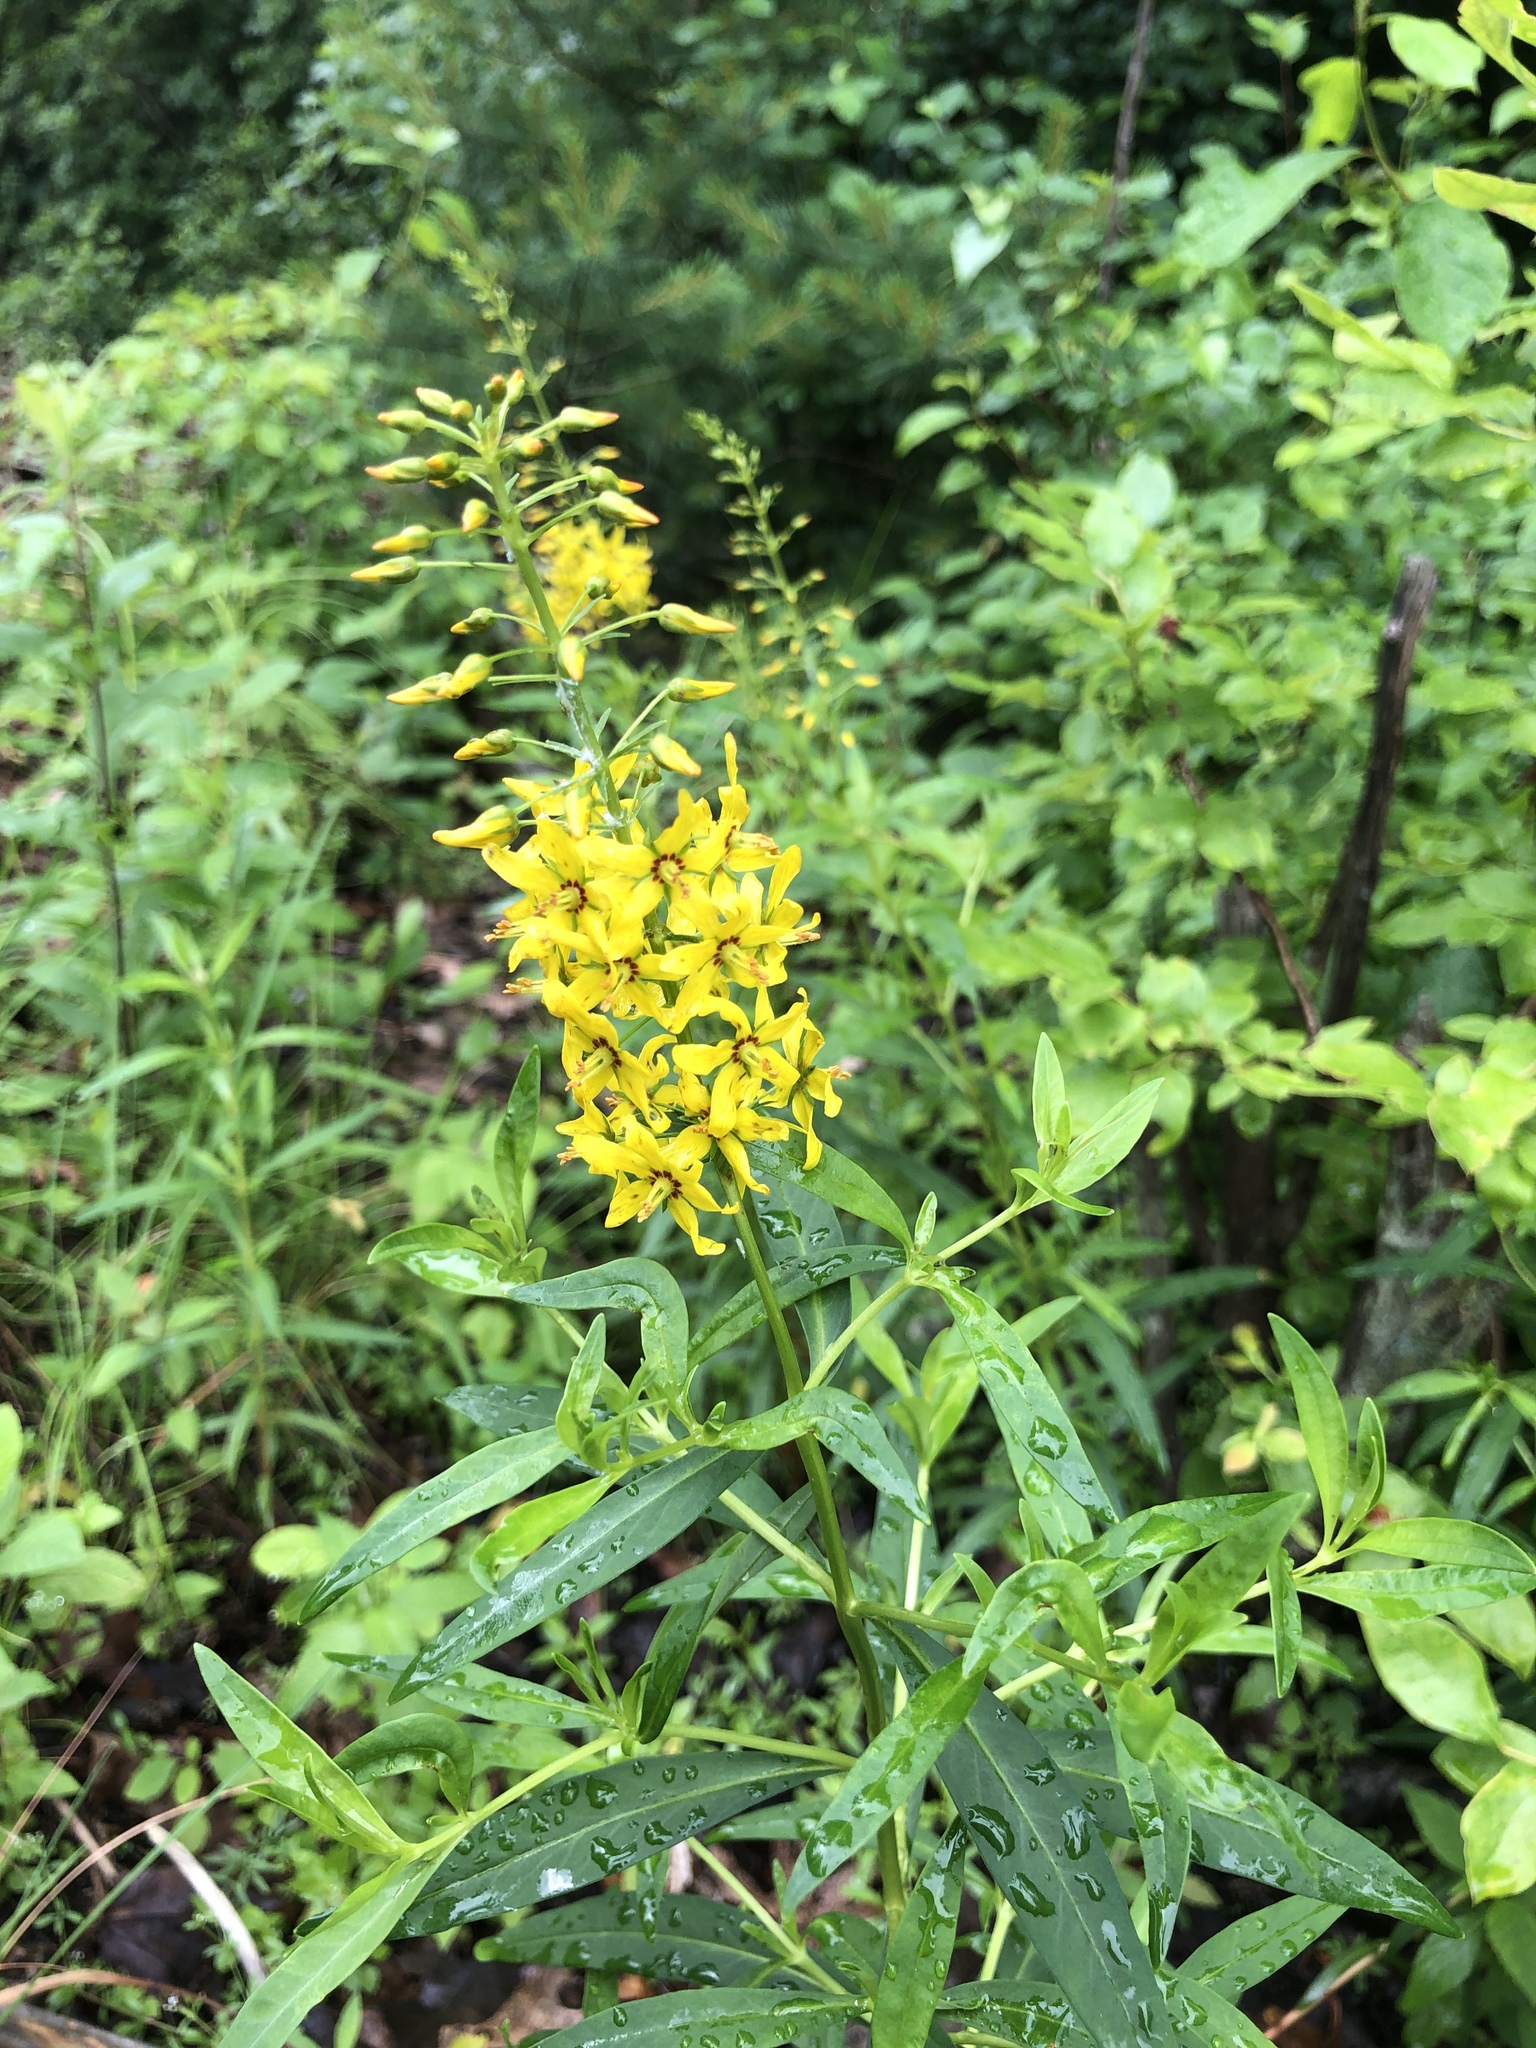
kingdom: Plantae
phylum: Tracheophyta
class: Magnoliopsida
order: Ericales
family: Primulaceae
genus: Lysimachia
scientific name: Lysimachia terrestris
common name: Lake loosestrife
